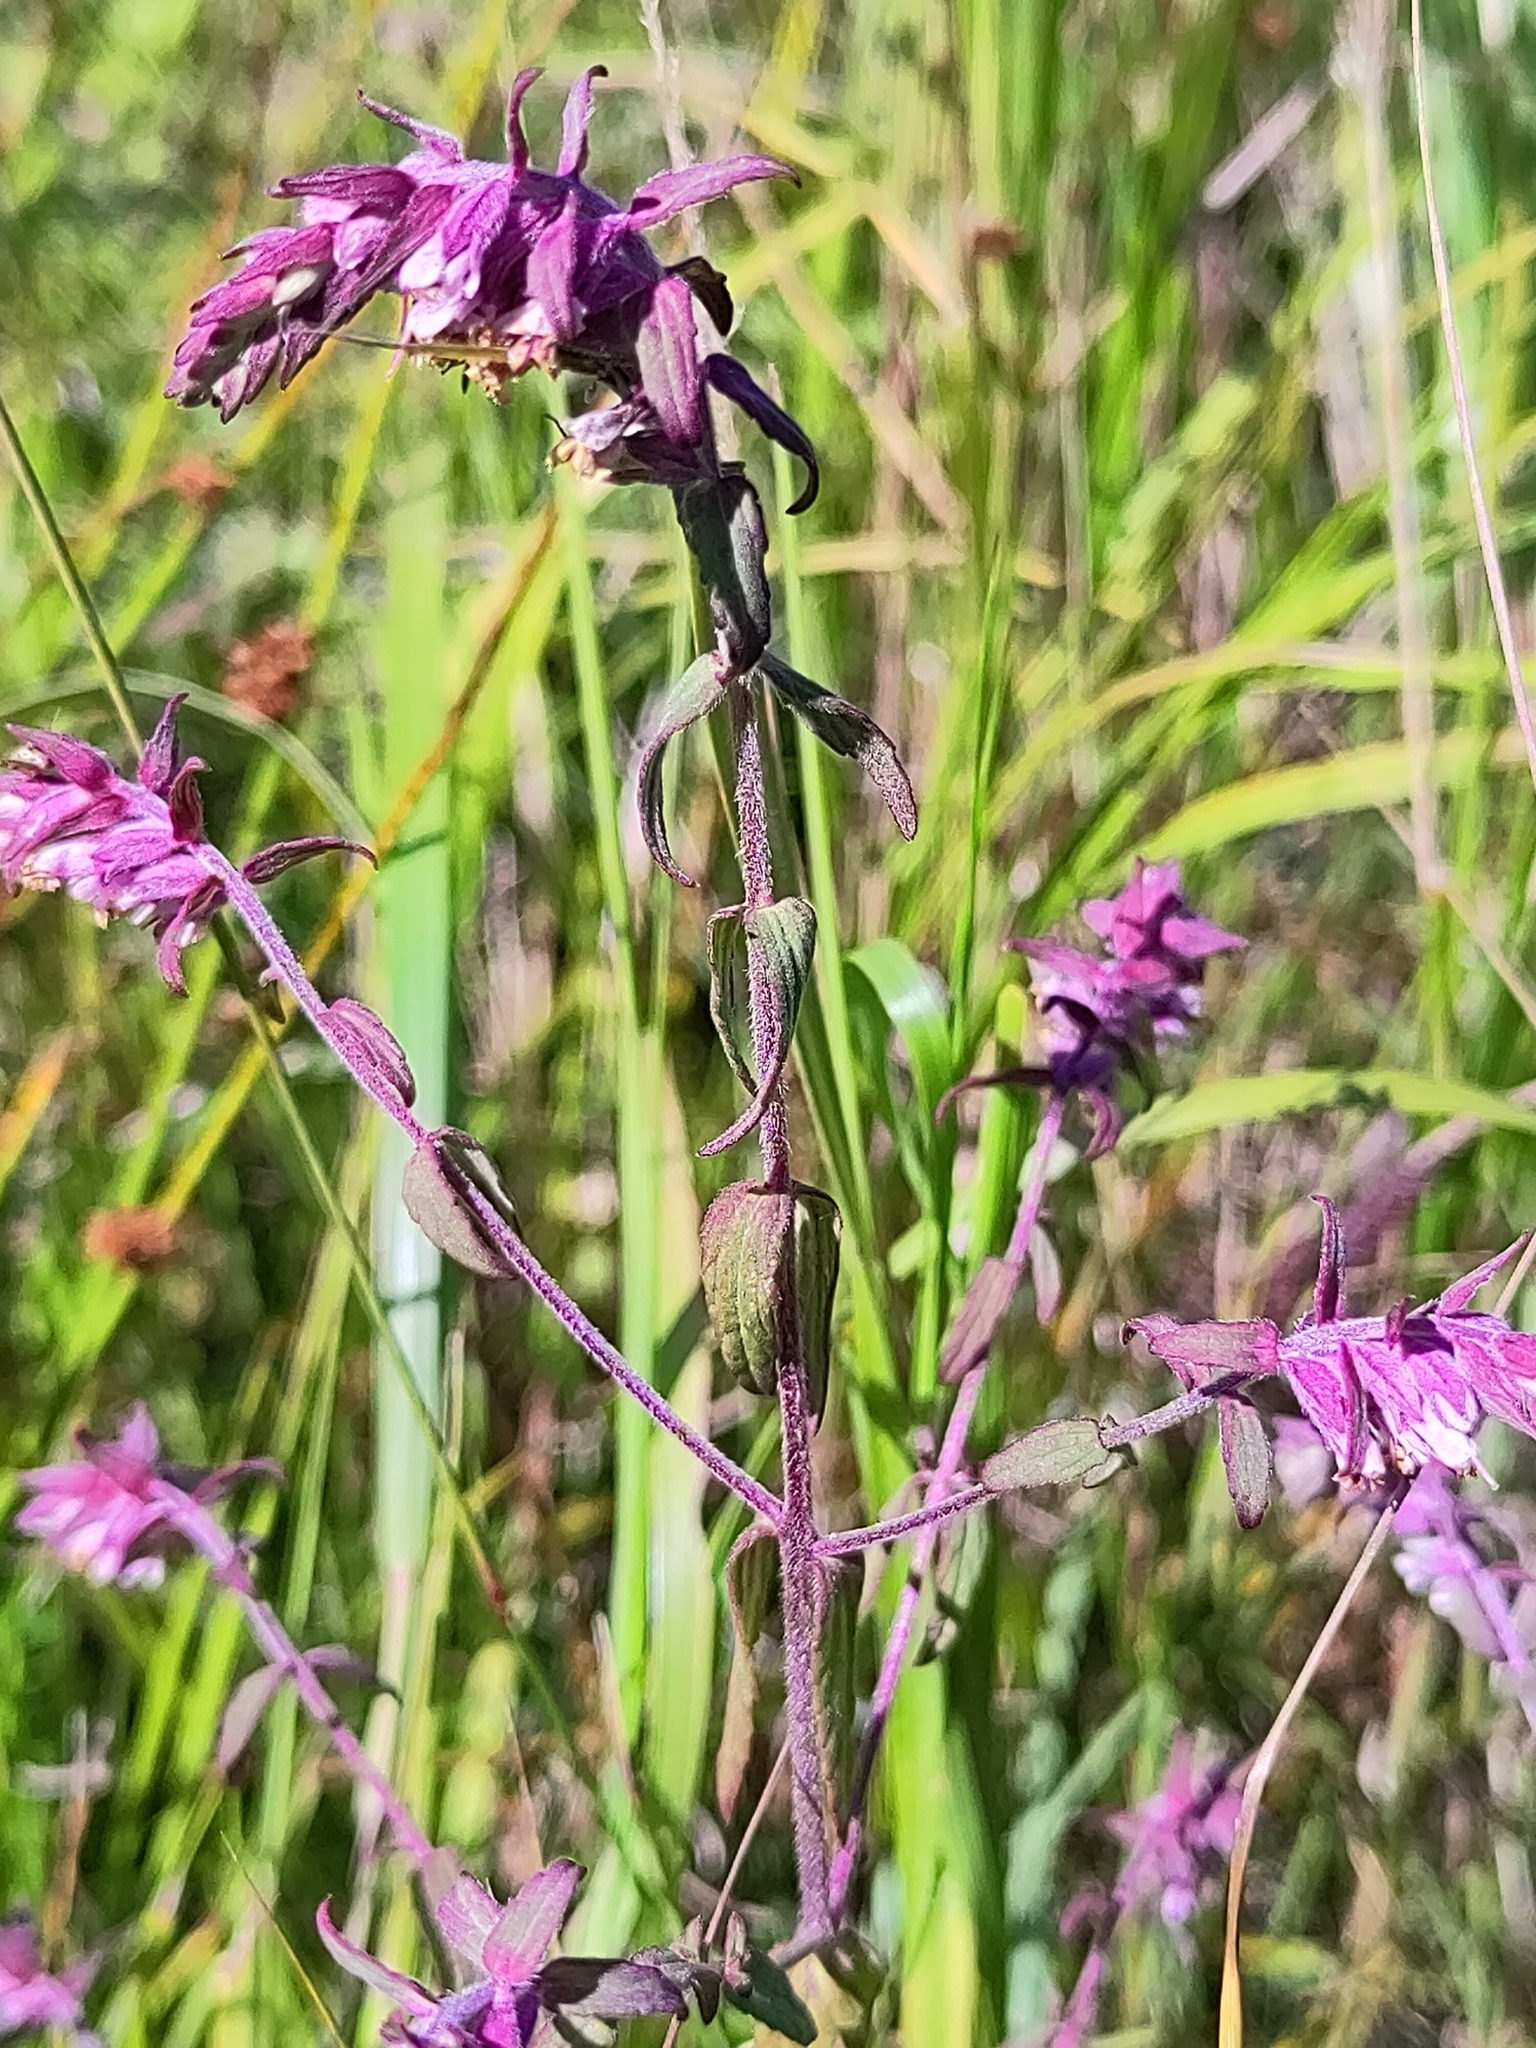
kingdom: Plantae
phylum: Tracheophyta
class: Magnoliopsida
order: Lamiales
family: Orobanchaceae
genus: Odontites
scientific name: Odontites vulgaris
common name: Broomrape
